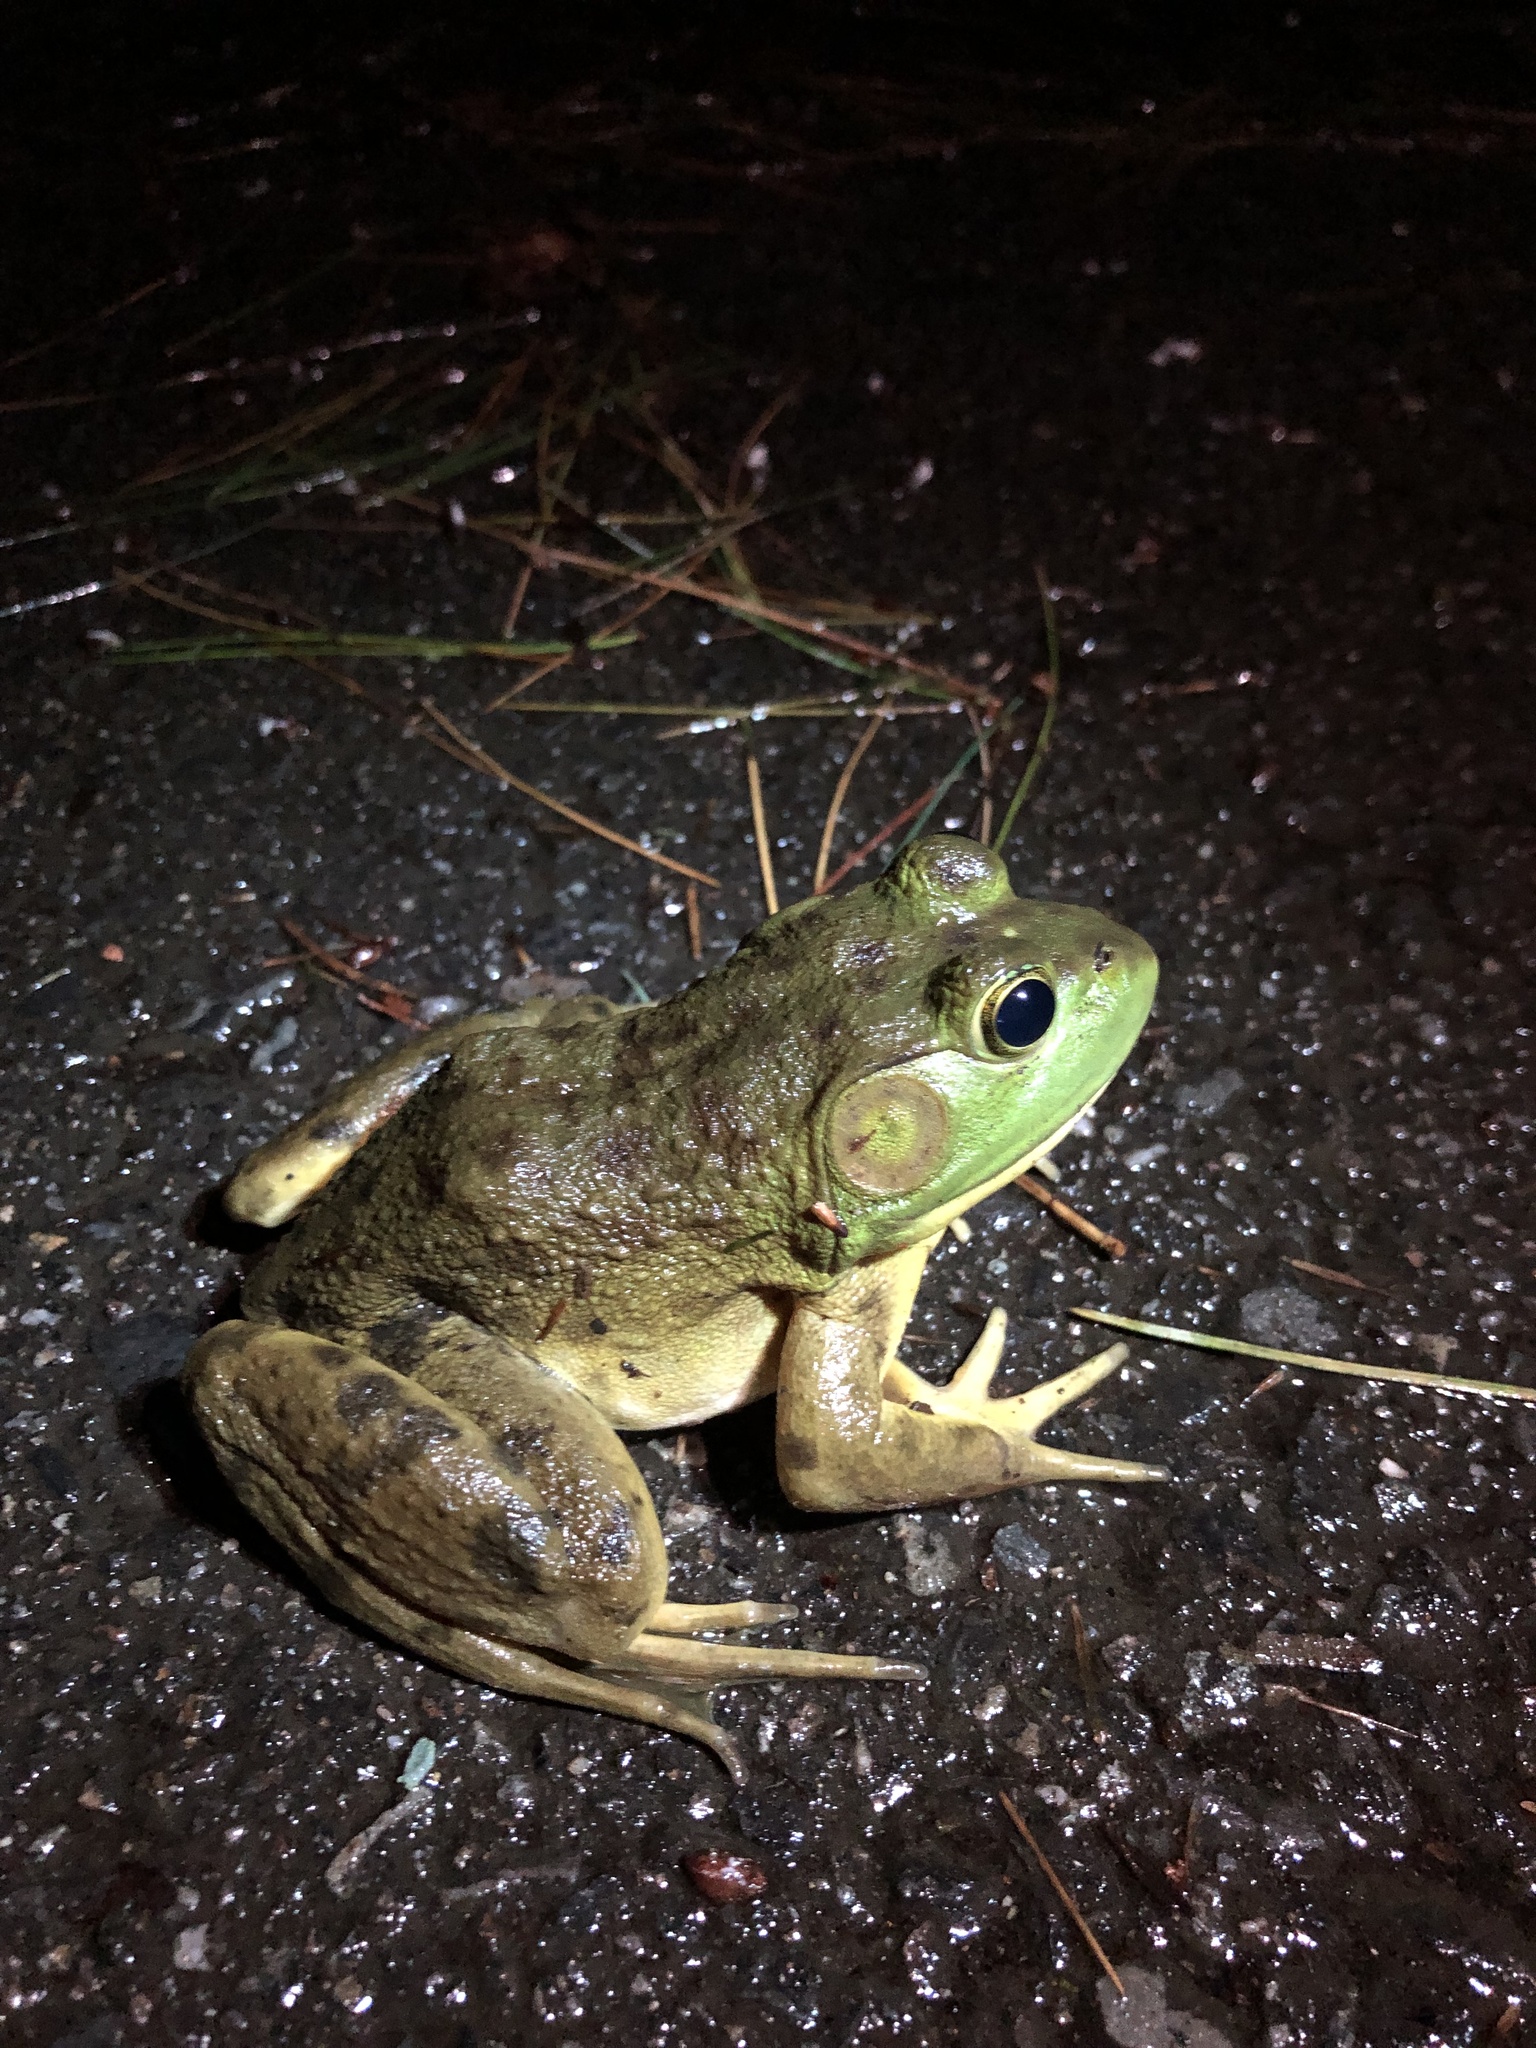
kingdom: Animalia
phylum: Chordata
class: Amphibia
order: Anura
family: Ranidae
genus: Lithobates
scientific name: Lithobates catesbeianus
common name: American bullfrog
